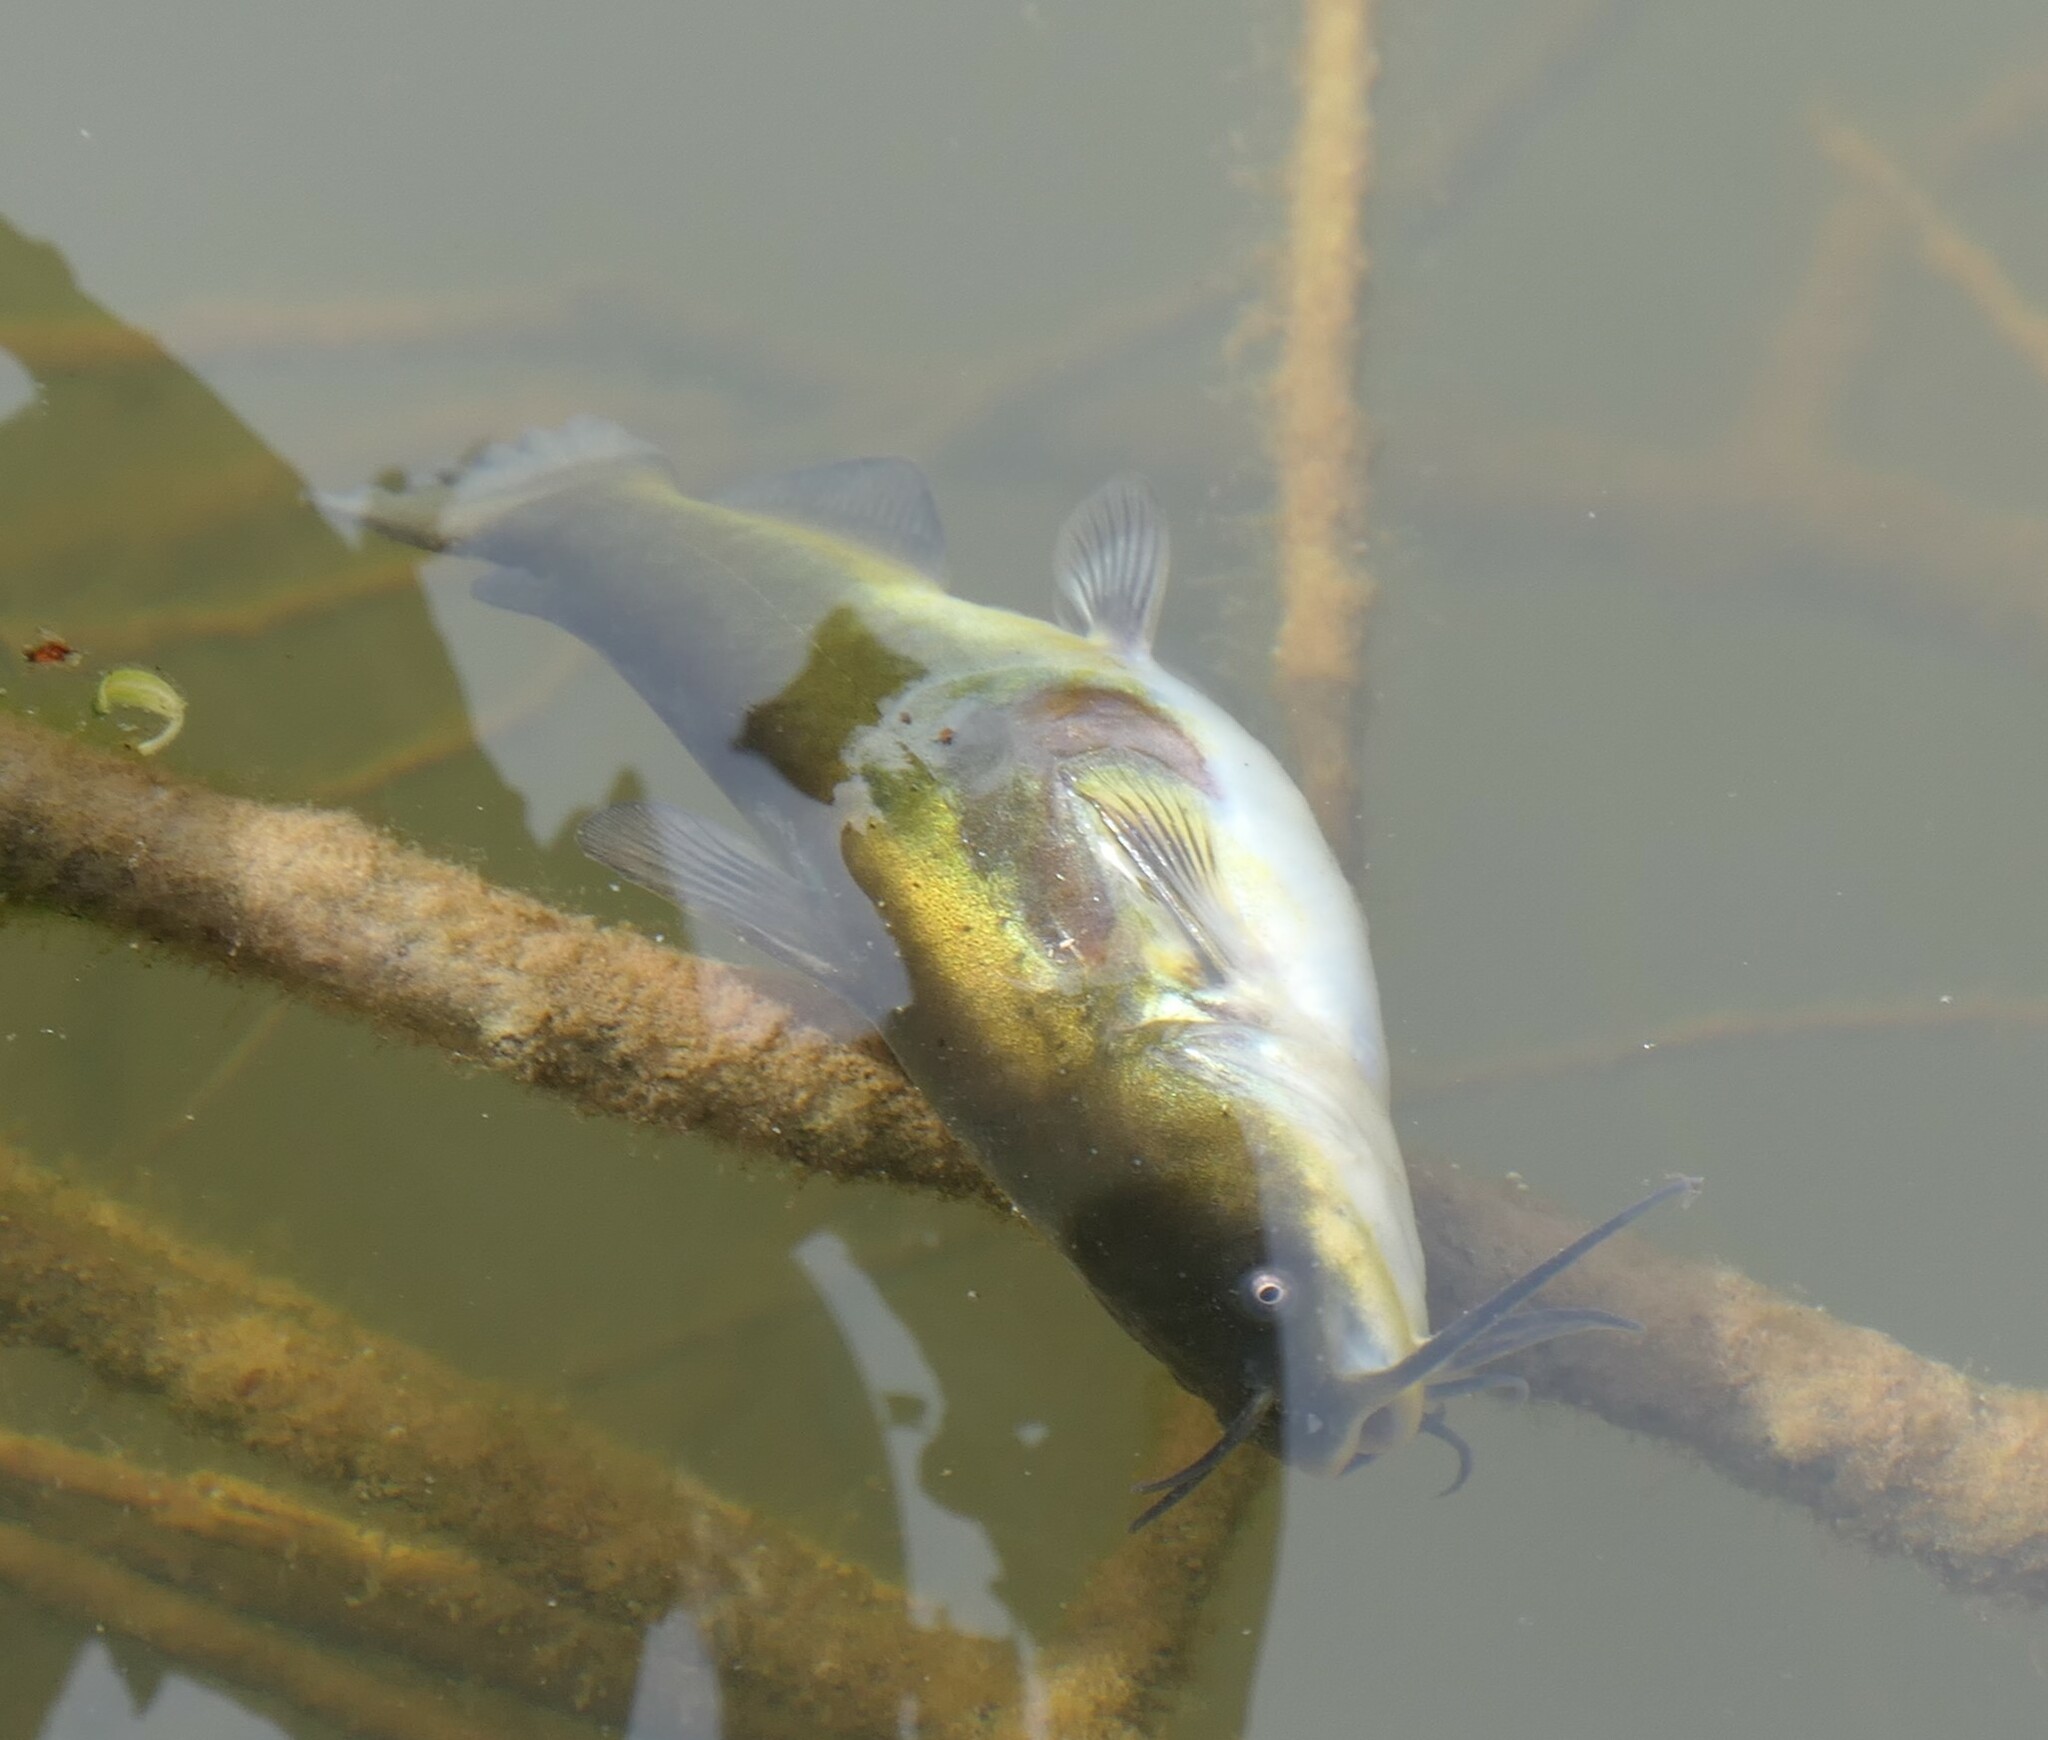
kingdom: Animalia
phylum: Chordata
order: Siluriformes
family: Ictaluridae
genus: Ameiurus
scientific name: Ameiurus melas
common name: Black bullhead
